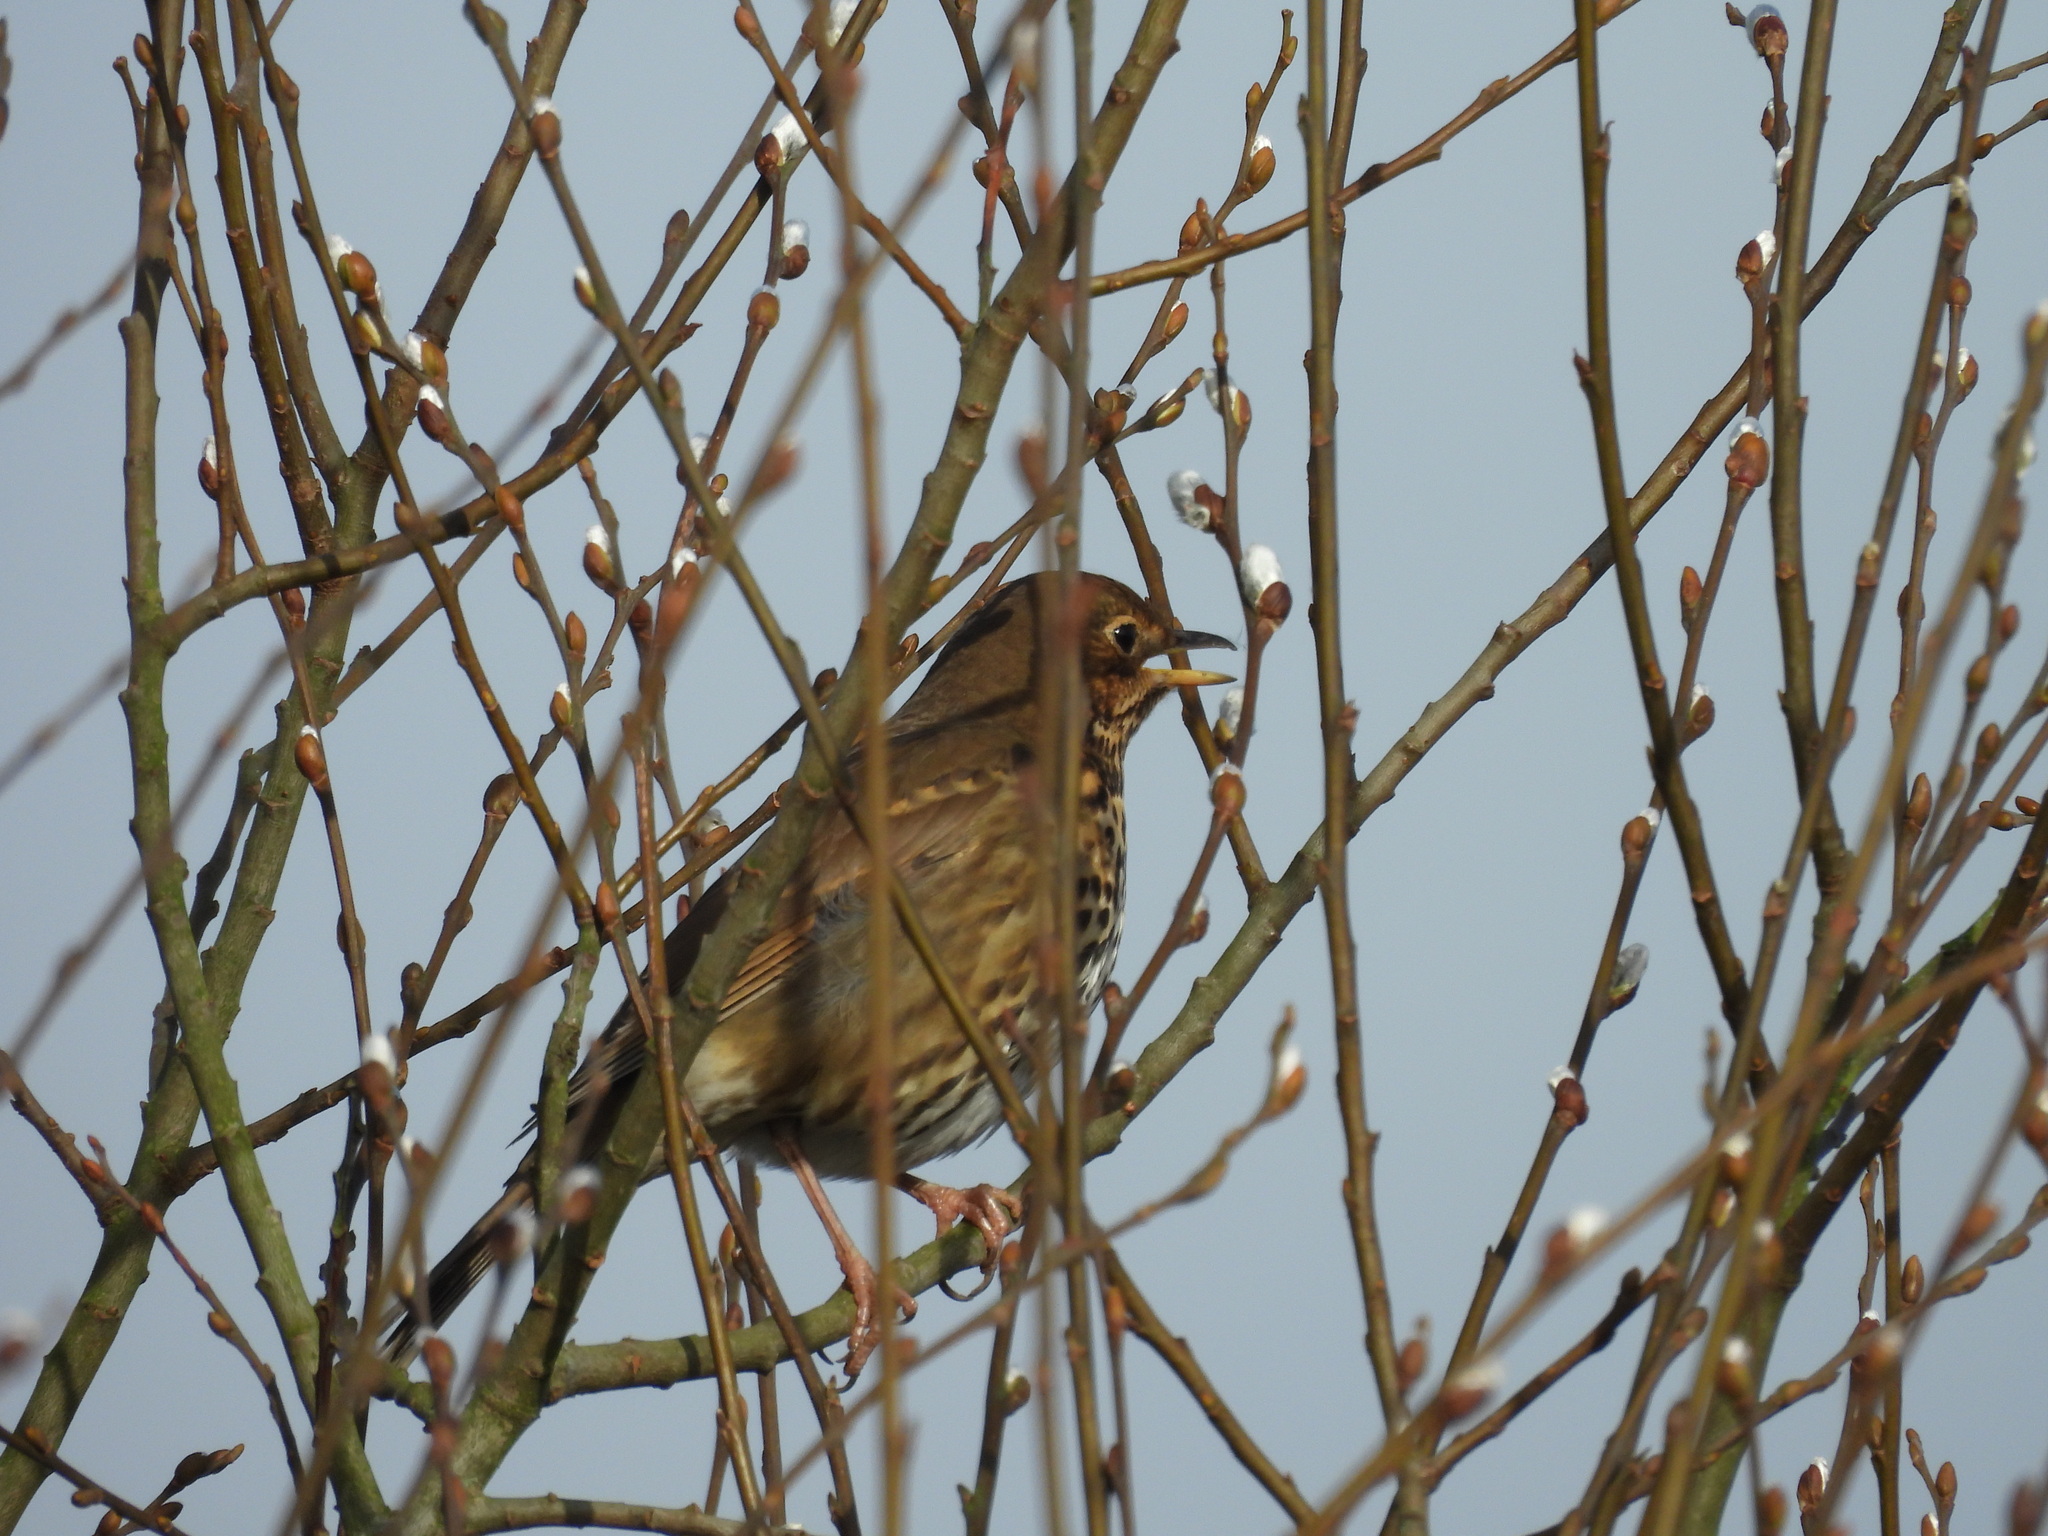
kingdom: Animalia
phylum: Chordata
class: Aves
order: Passeriformes
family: Turdidae
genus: Turdus
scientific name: Turdus philomelos
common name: Song thrush
